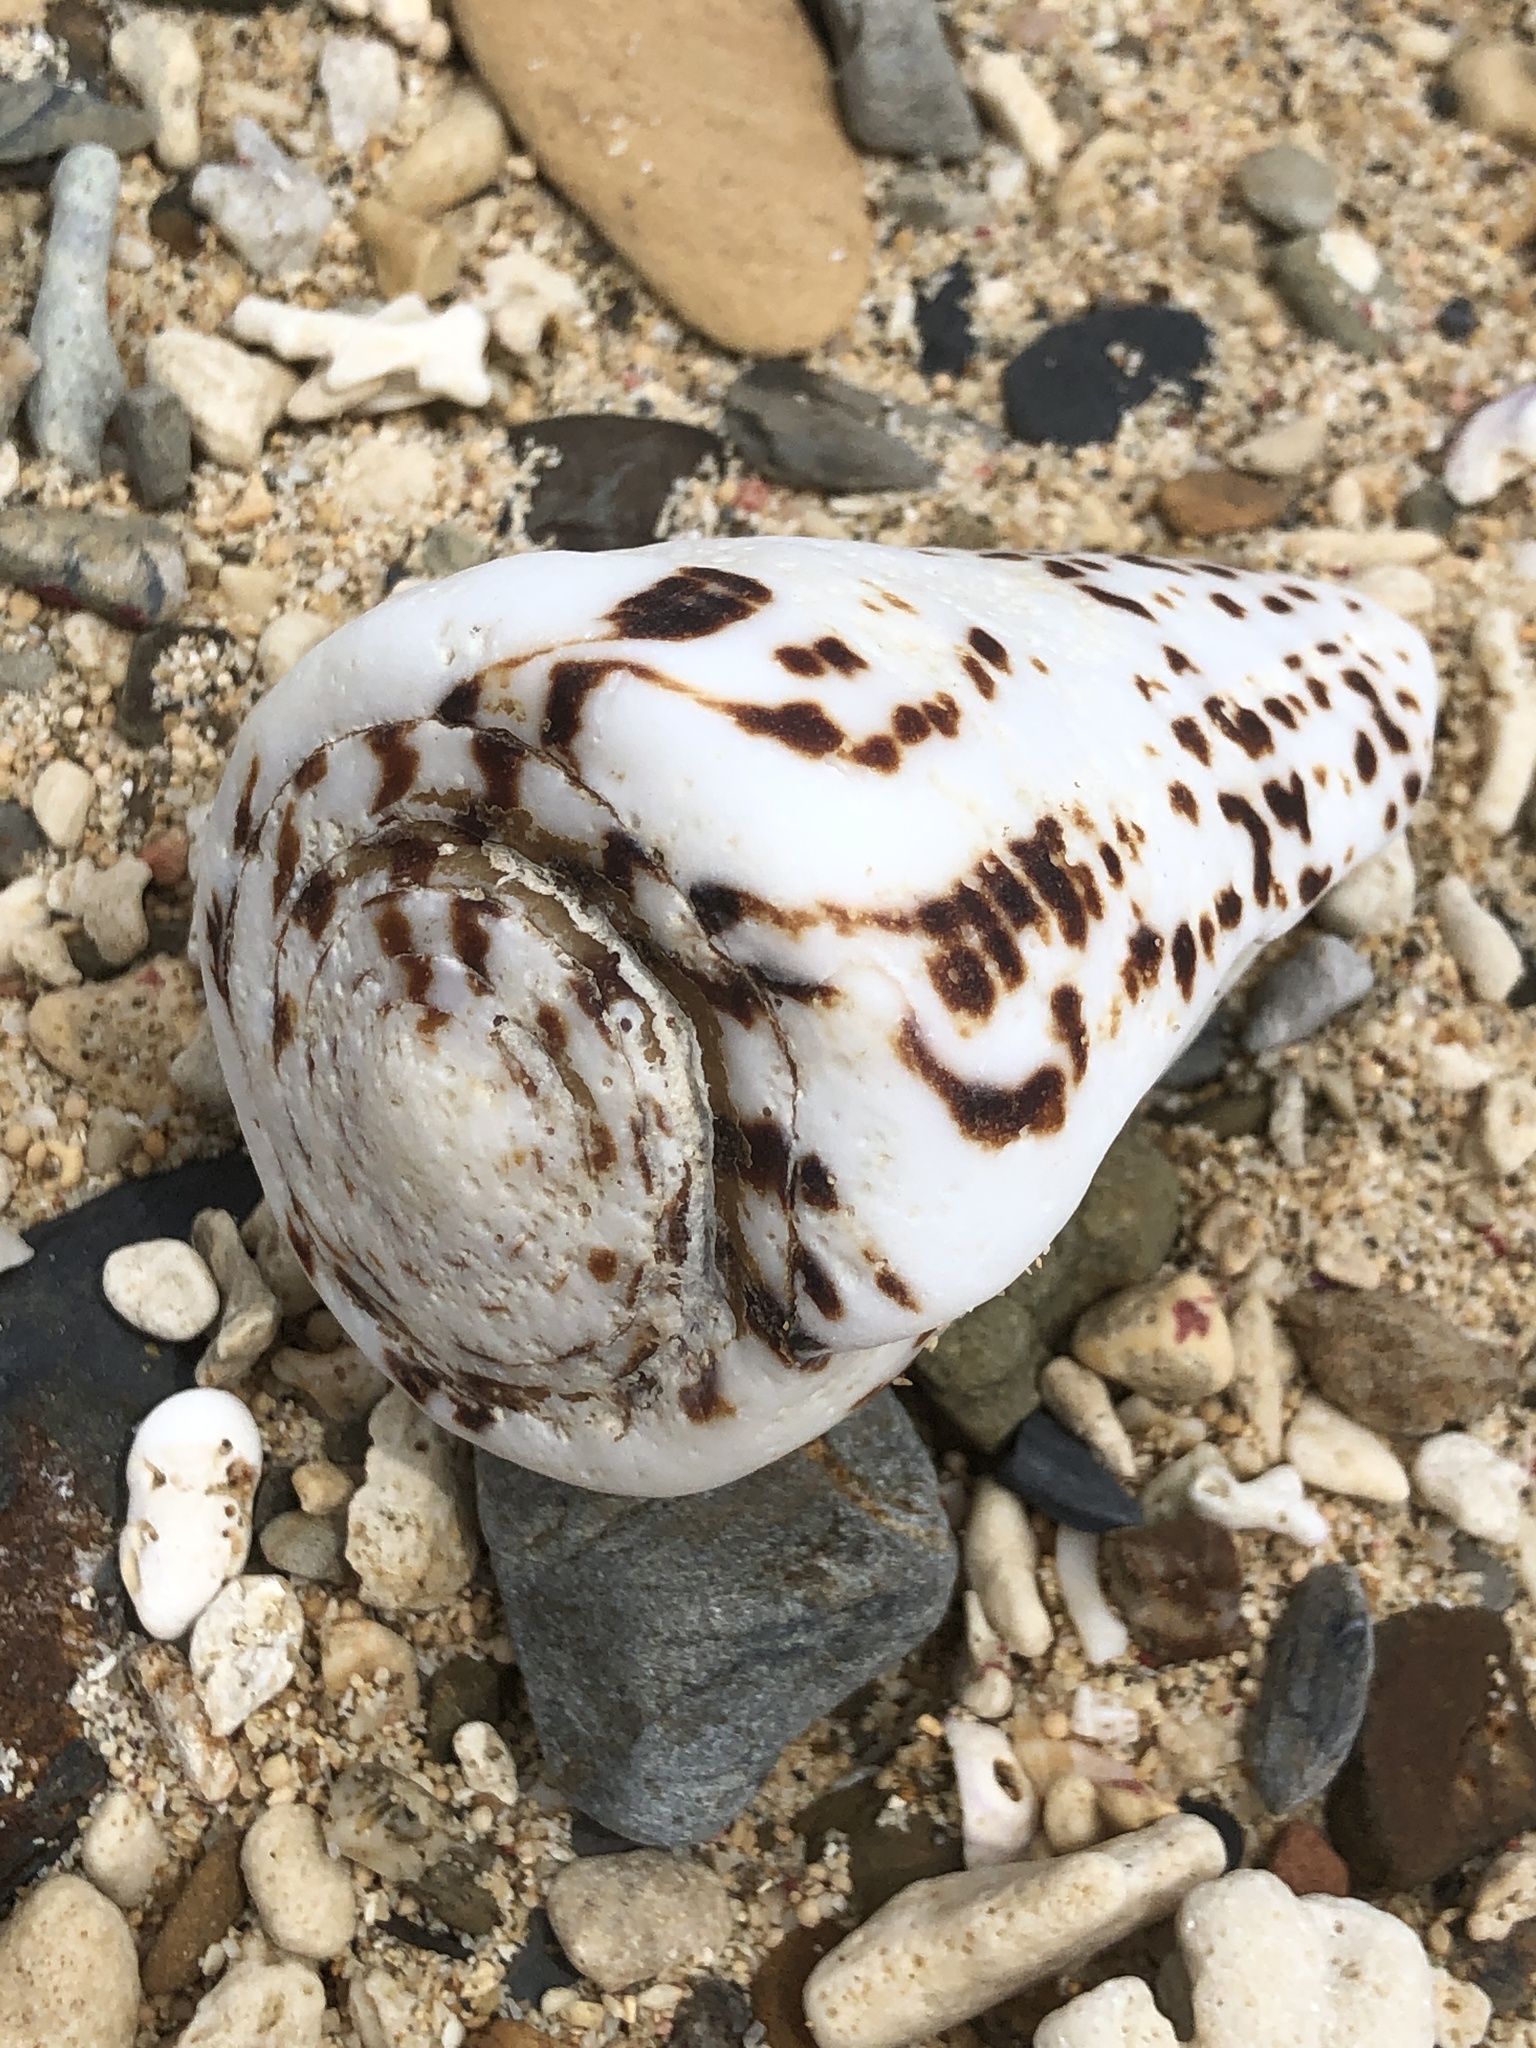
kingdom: Animalia
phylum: Mollusca
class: Gastropoda
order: Neogastropoda
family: Conidae
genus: Conus
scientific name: Conus litteratus
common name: Lettered cone
